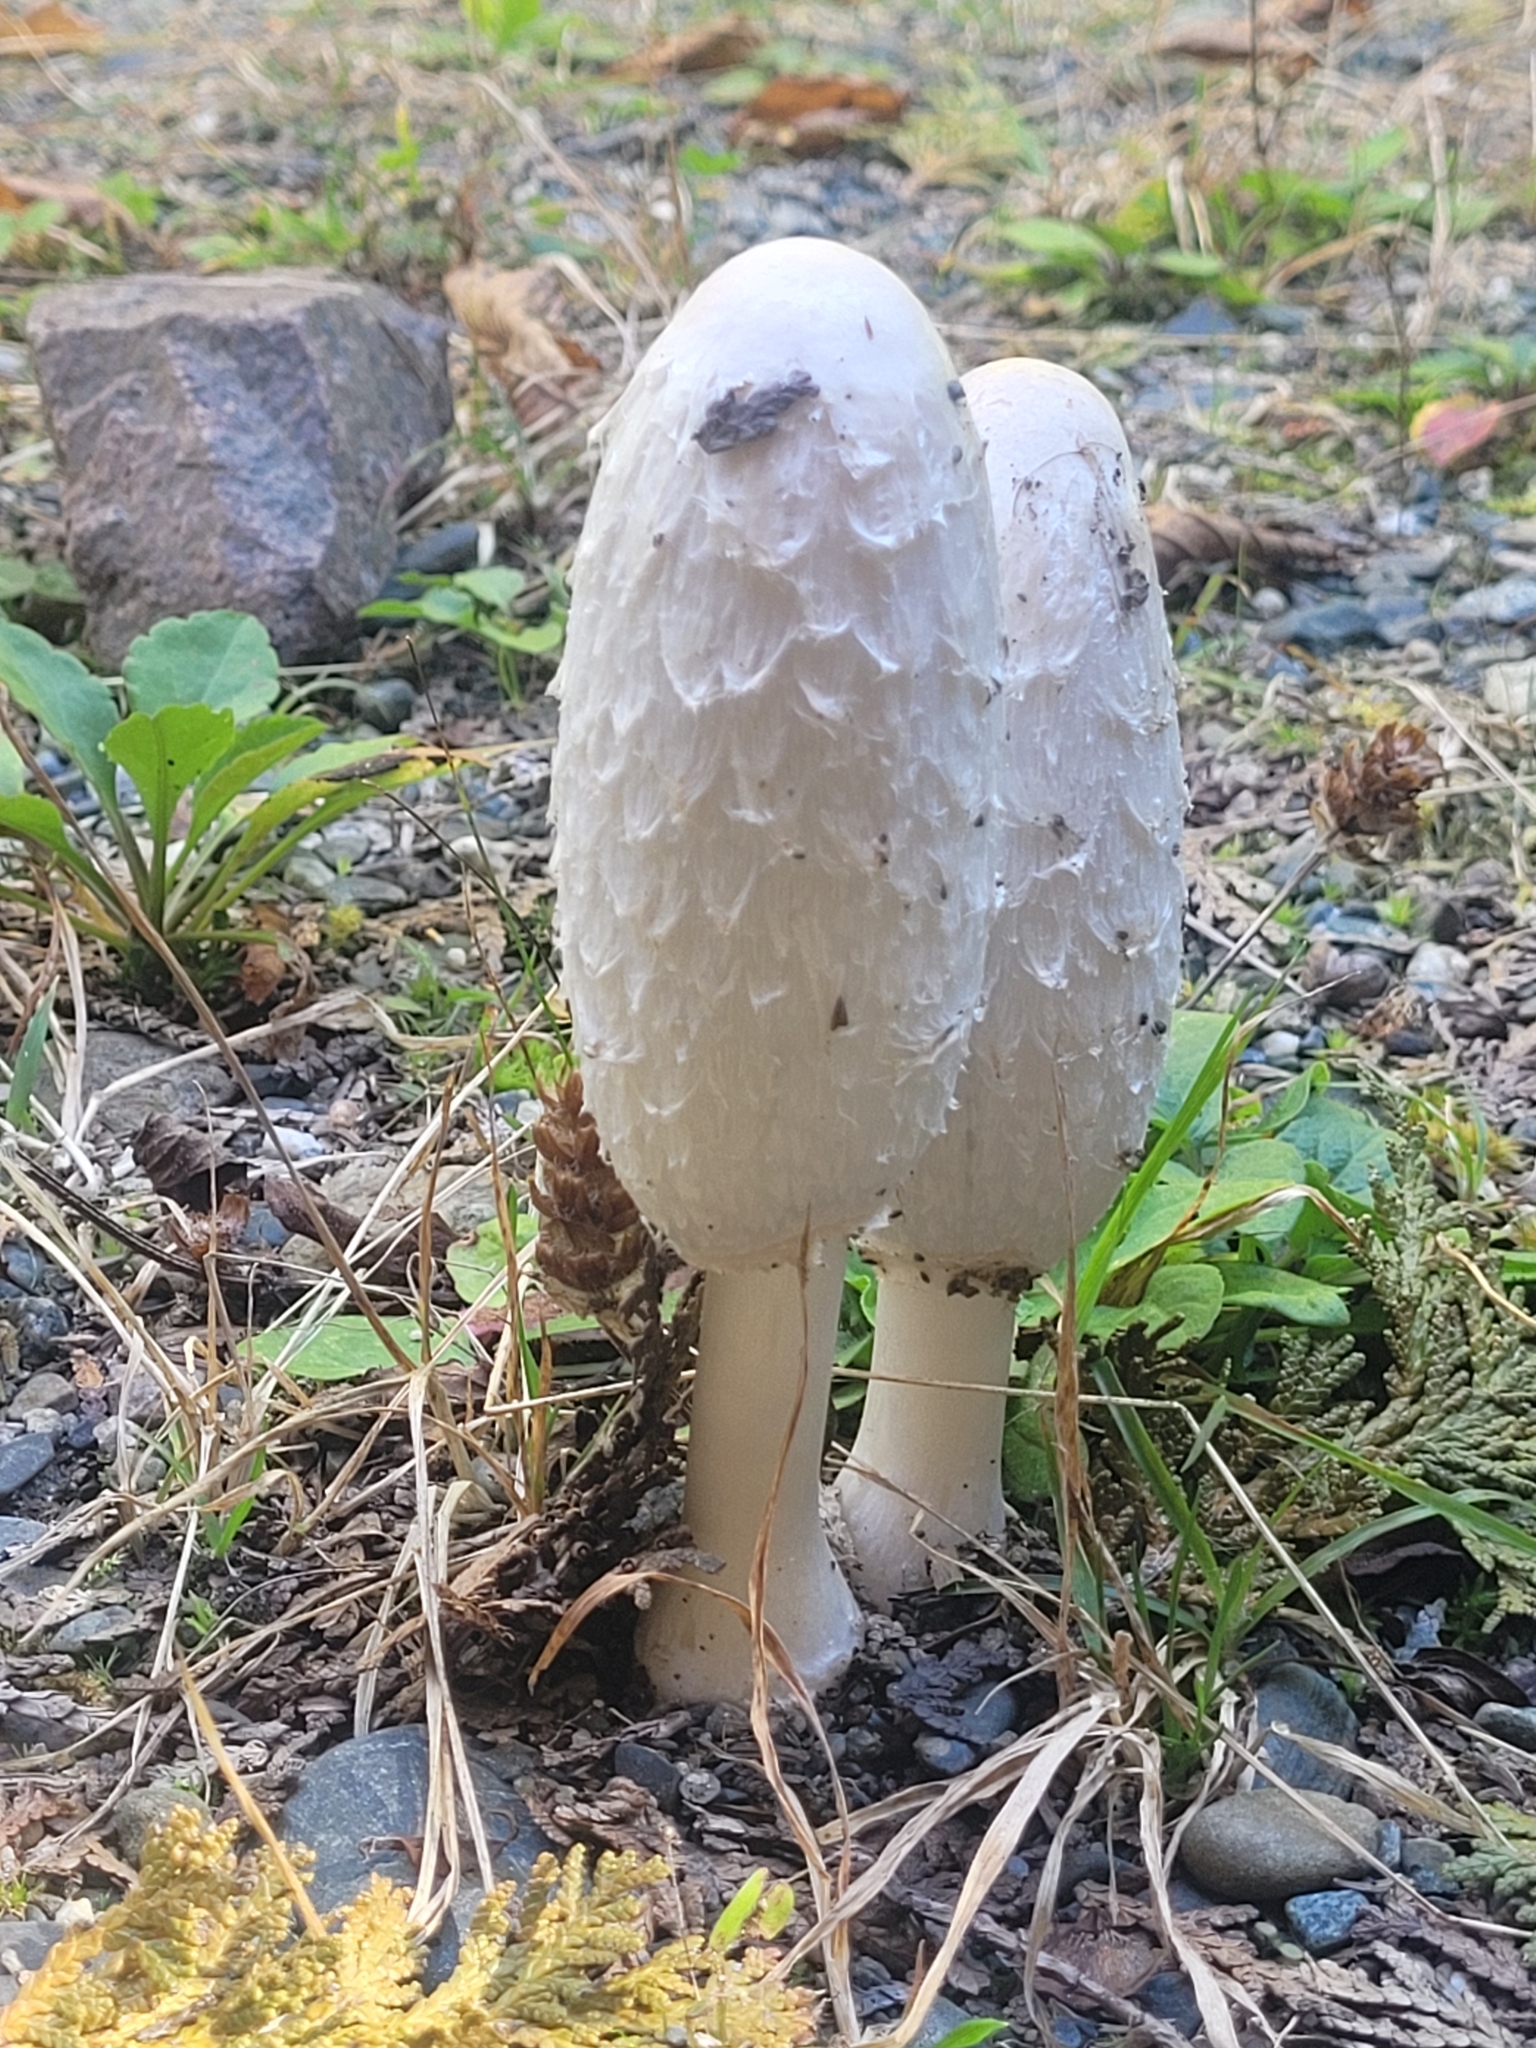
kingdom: Fungi
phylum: Basidiomycota
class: Agaricomycetes
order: Agaricales
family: Agaricaceae
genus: Coprinus
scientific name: Coprinus comatus
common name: Lawyer's wig
